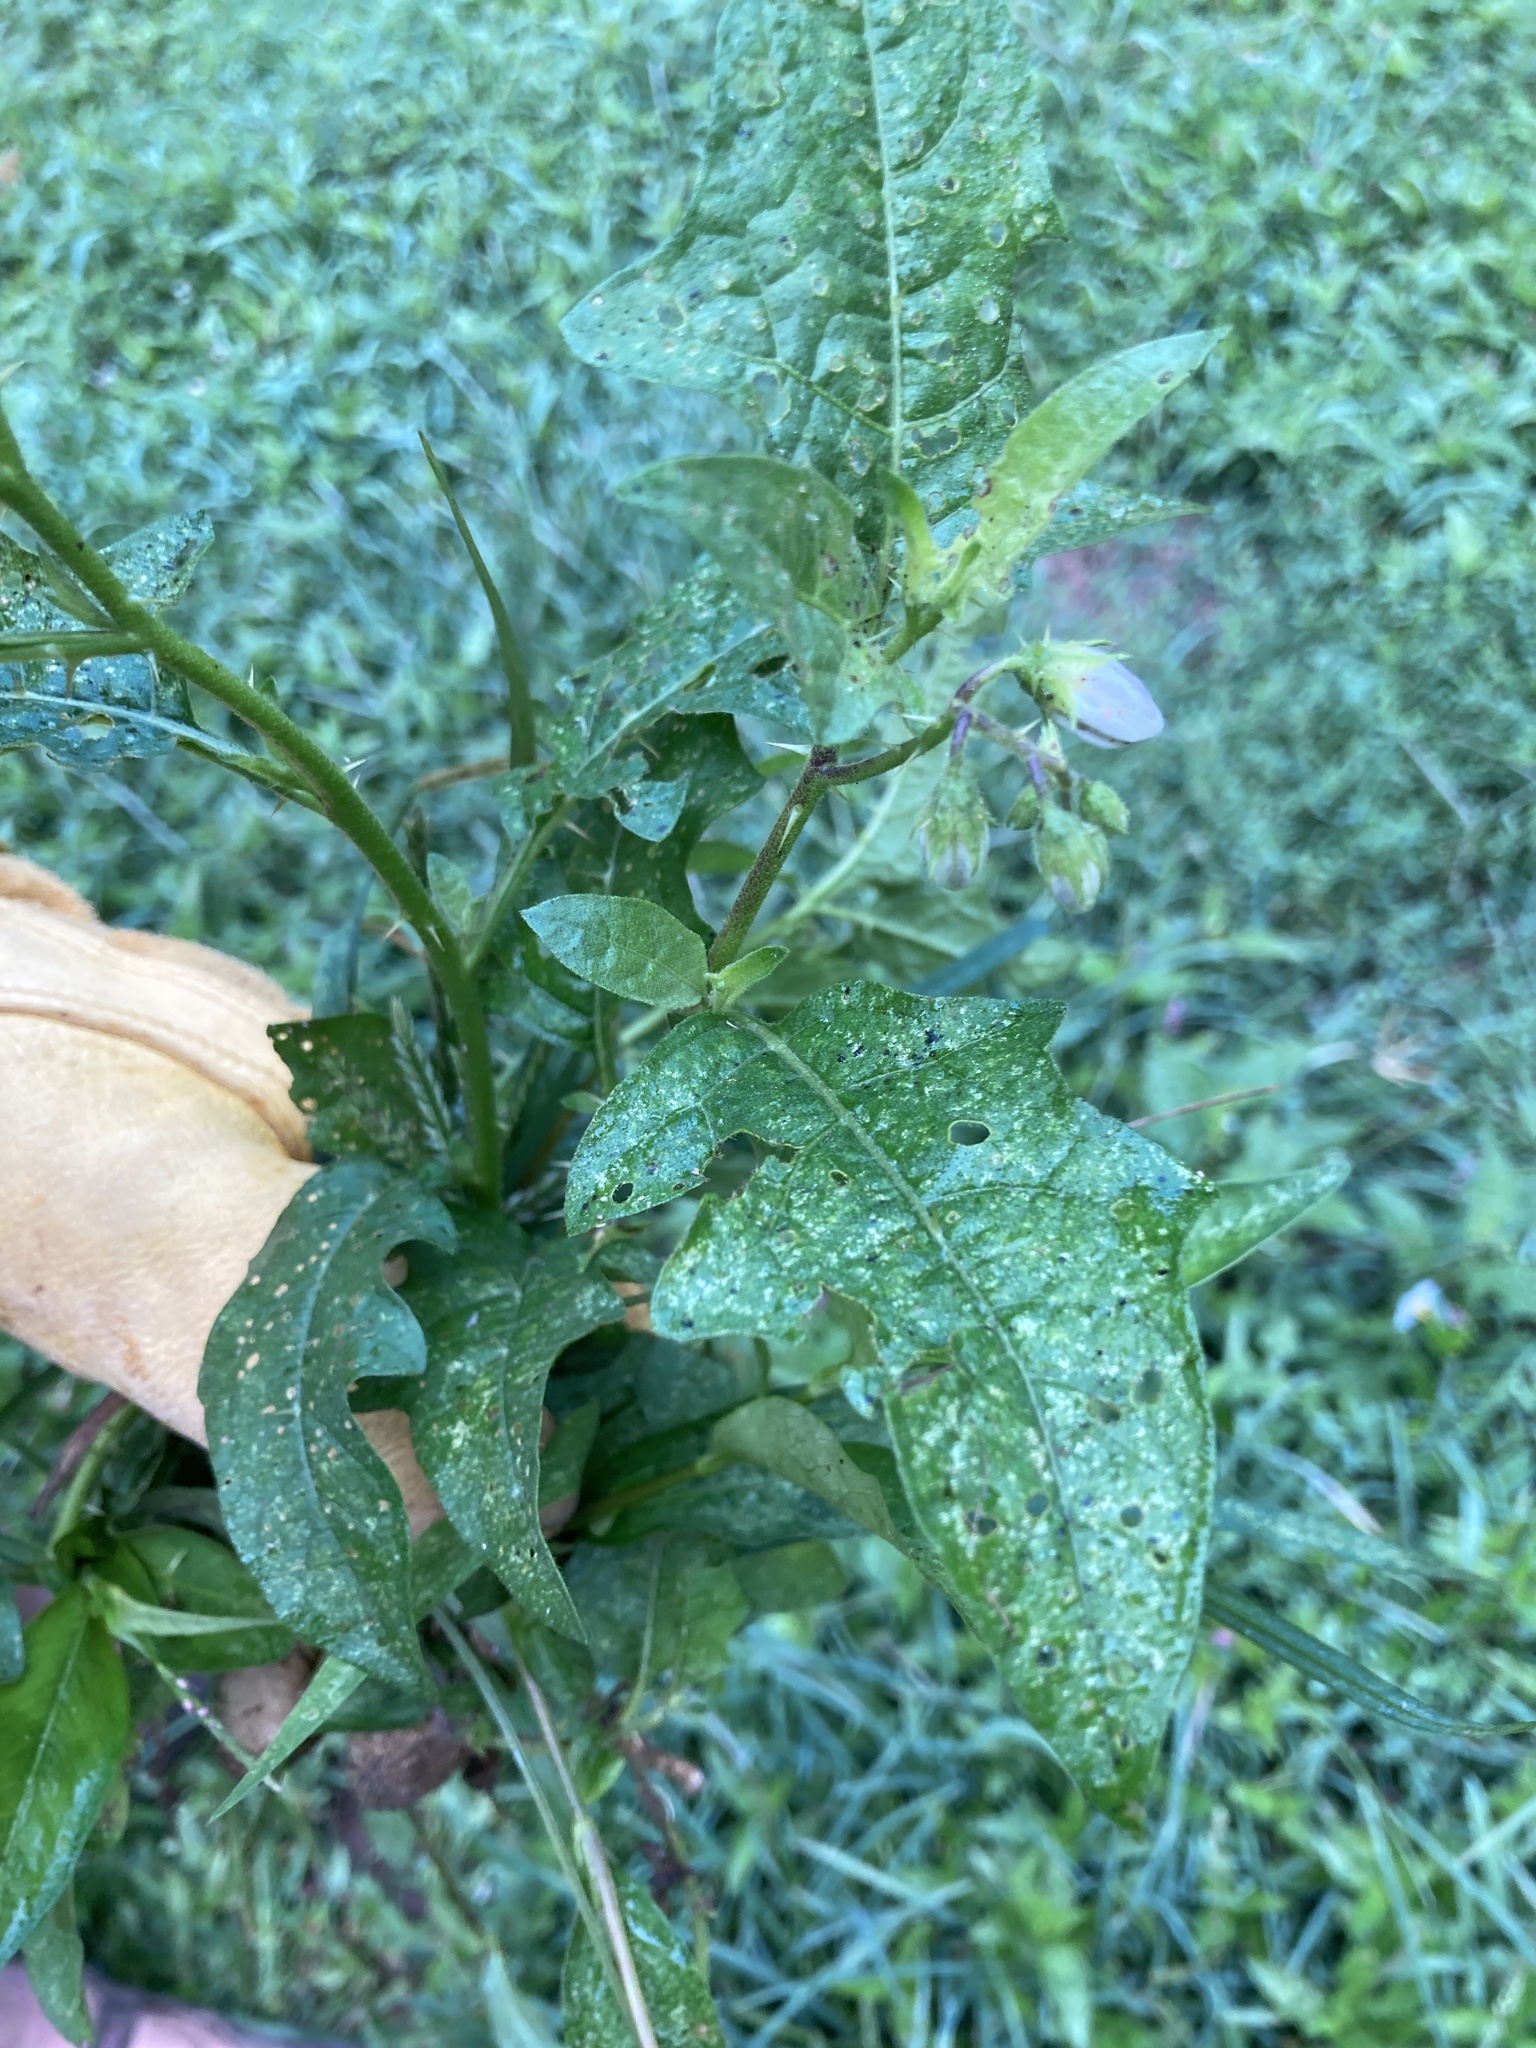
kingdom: Plantae
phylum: Tracheophyta
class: Magnoliopsida
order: Solanales
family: Solanaceae
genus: Solanum
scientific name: Solanum carolinense
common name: Horse-nettle
